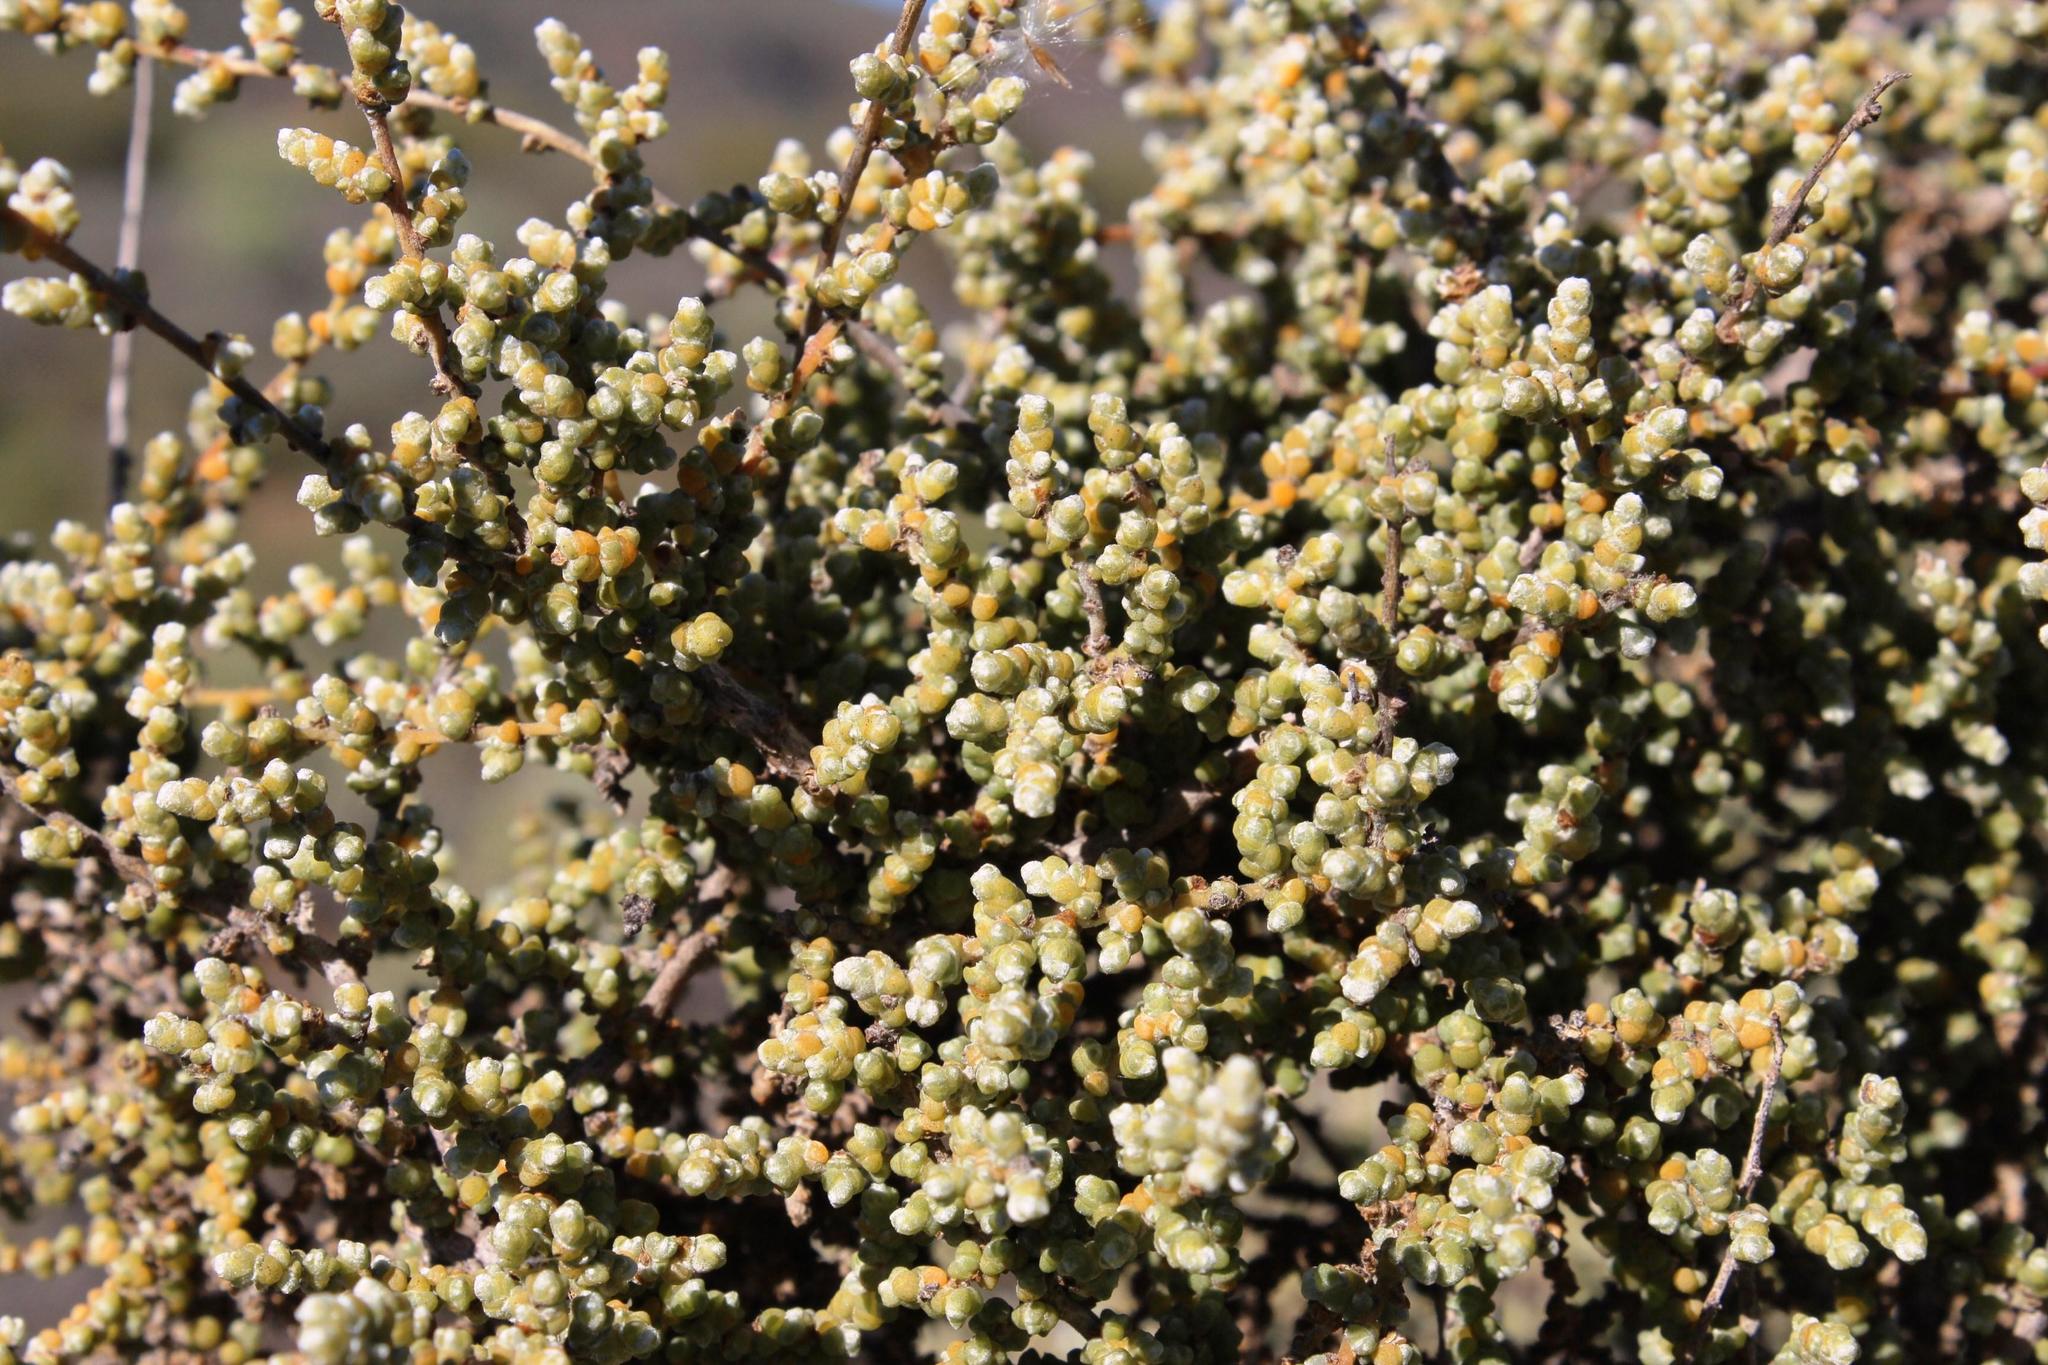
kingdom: Plantae
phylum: Tracheophyta
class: Magnoliopsida
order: Caryophyllales
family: Amaranthaceae
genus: Caroxylon
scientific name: Caroxylon aphyllum
